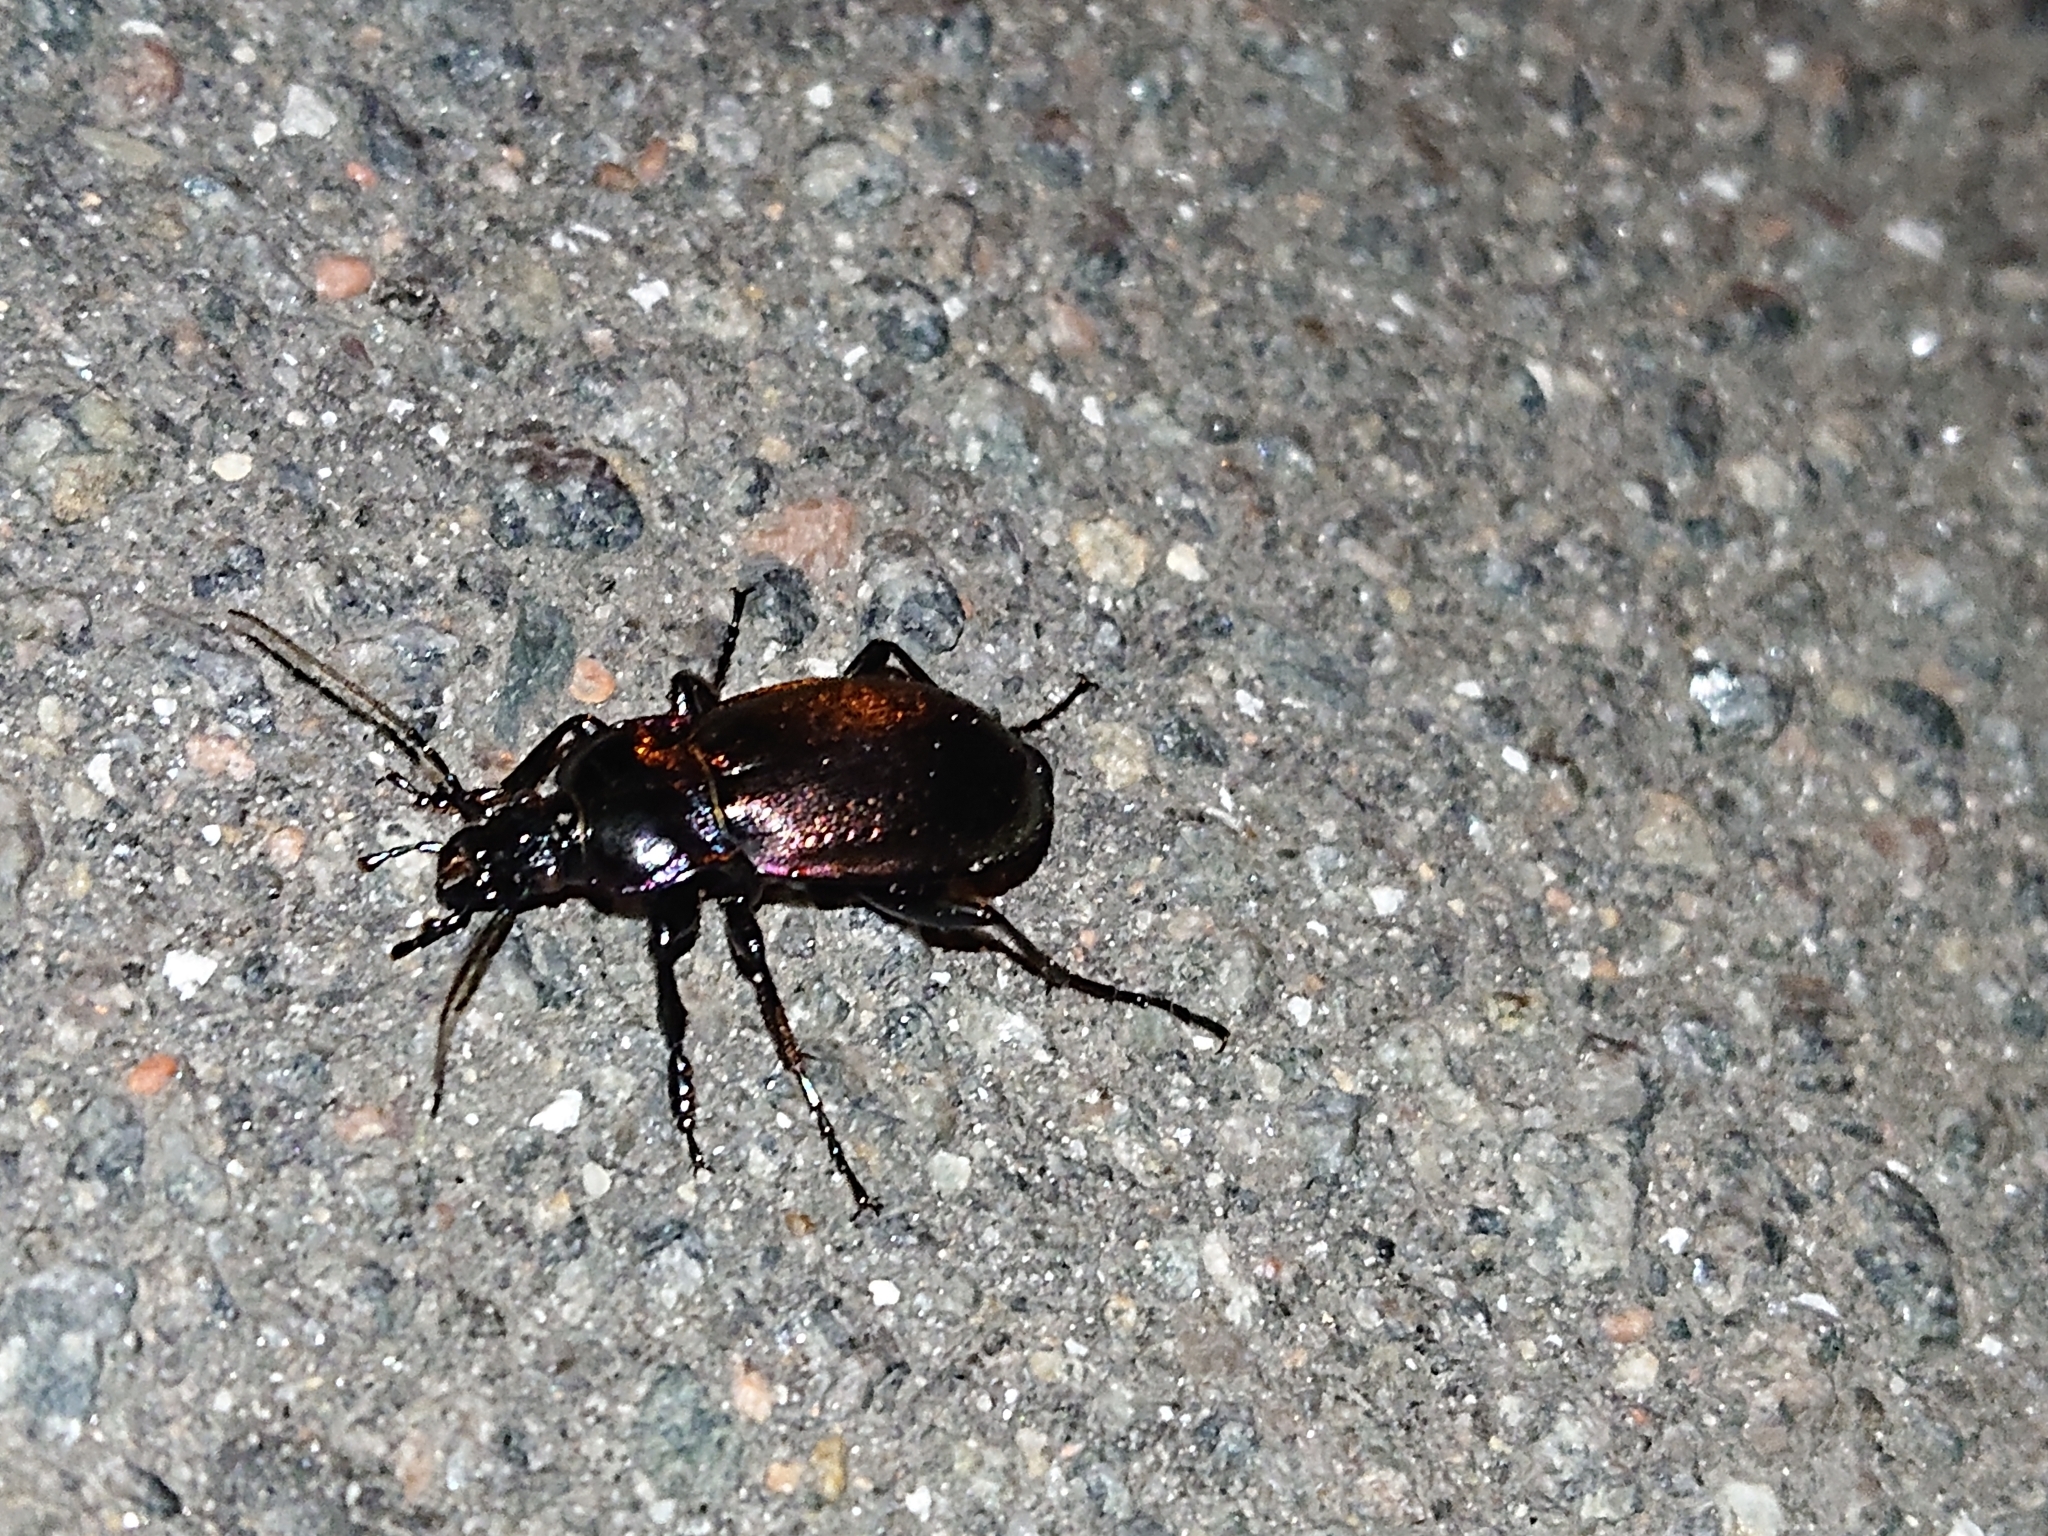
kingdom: Animalia
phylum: Arthropoda
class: Insecta
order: Coleoptera
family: Carabidae
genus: Carabus
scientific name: Carabus nemoralis
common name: European ground beetle
